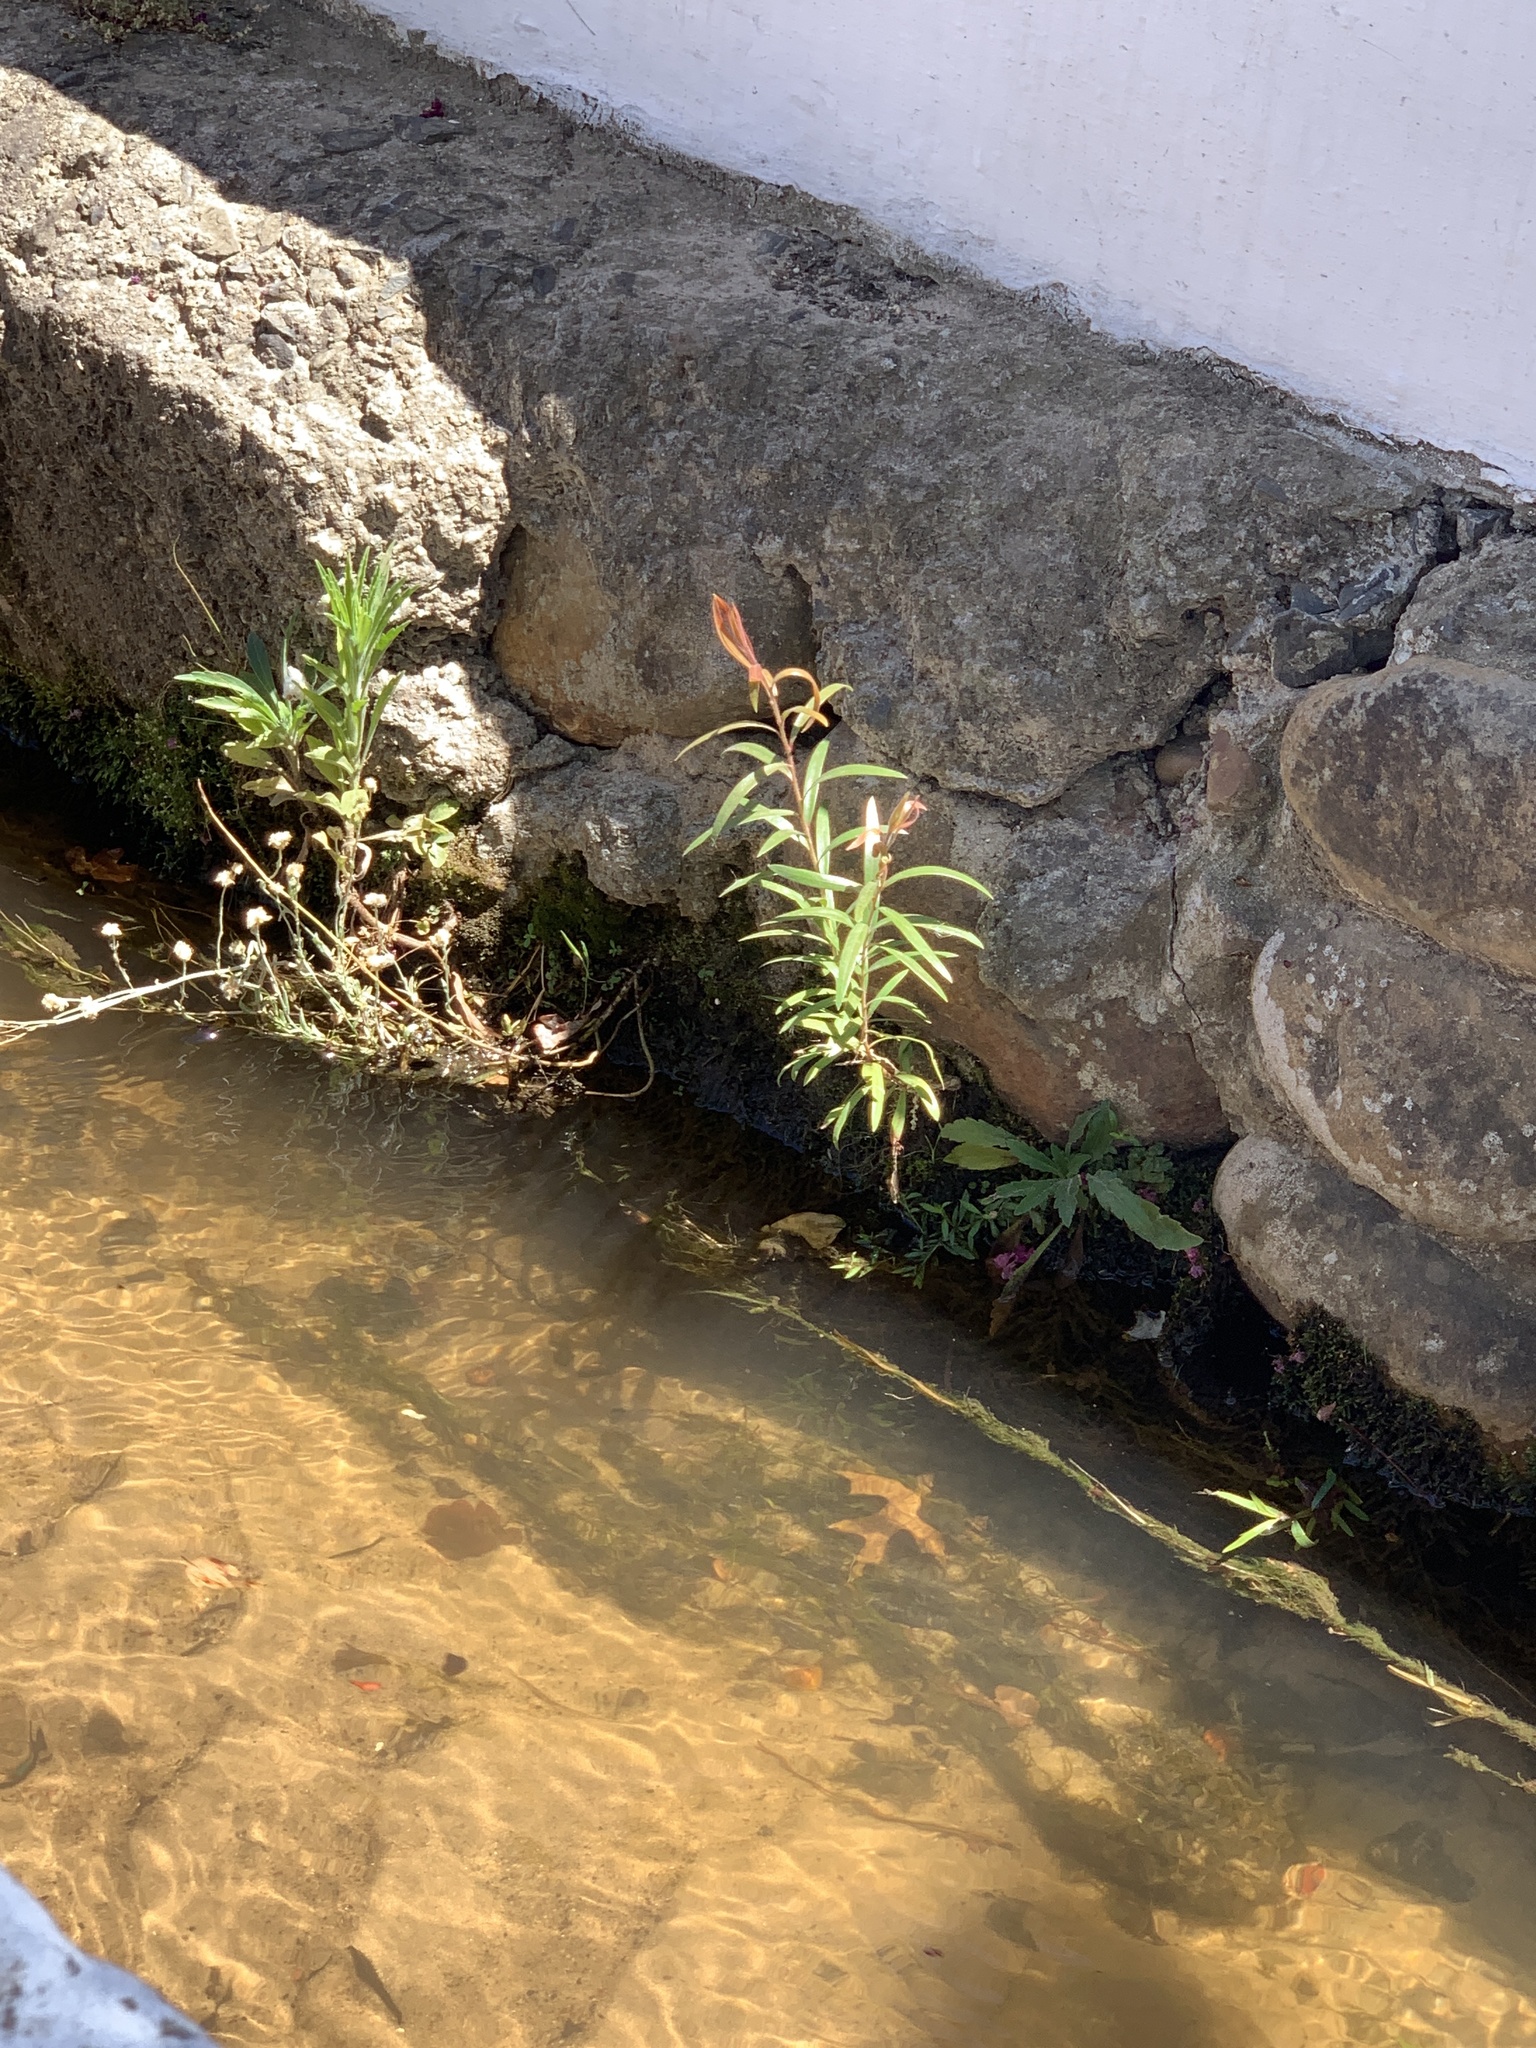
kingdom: Plantae
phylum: Tracheophyta
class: Magnoliopsida
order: Myrtales
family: Myrtaceae
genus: Callistemon
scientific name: Callistemon viminalis
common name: Drooping bottlebrush
